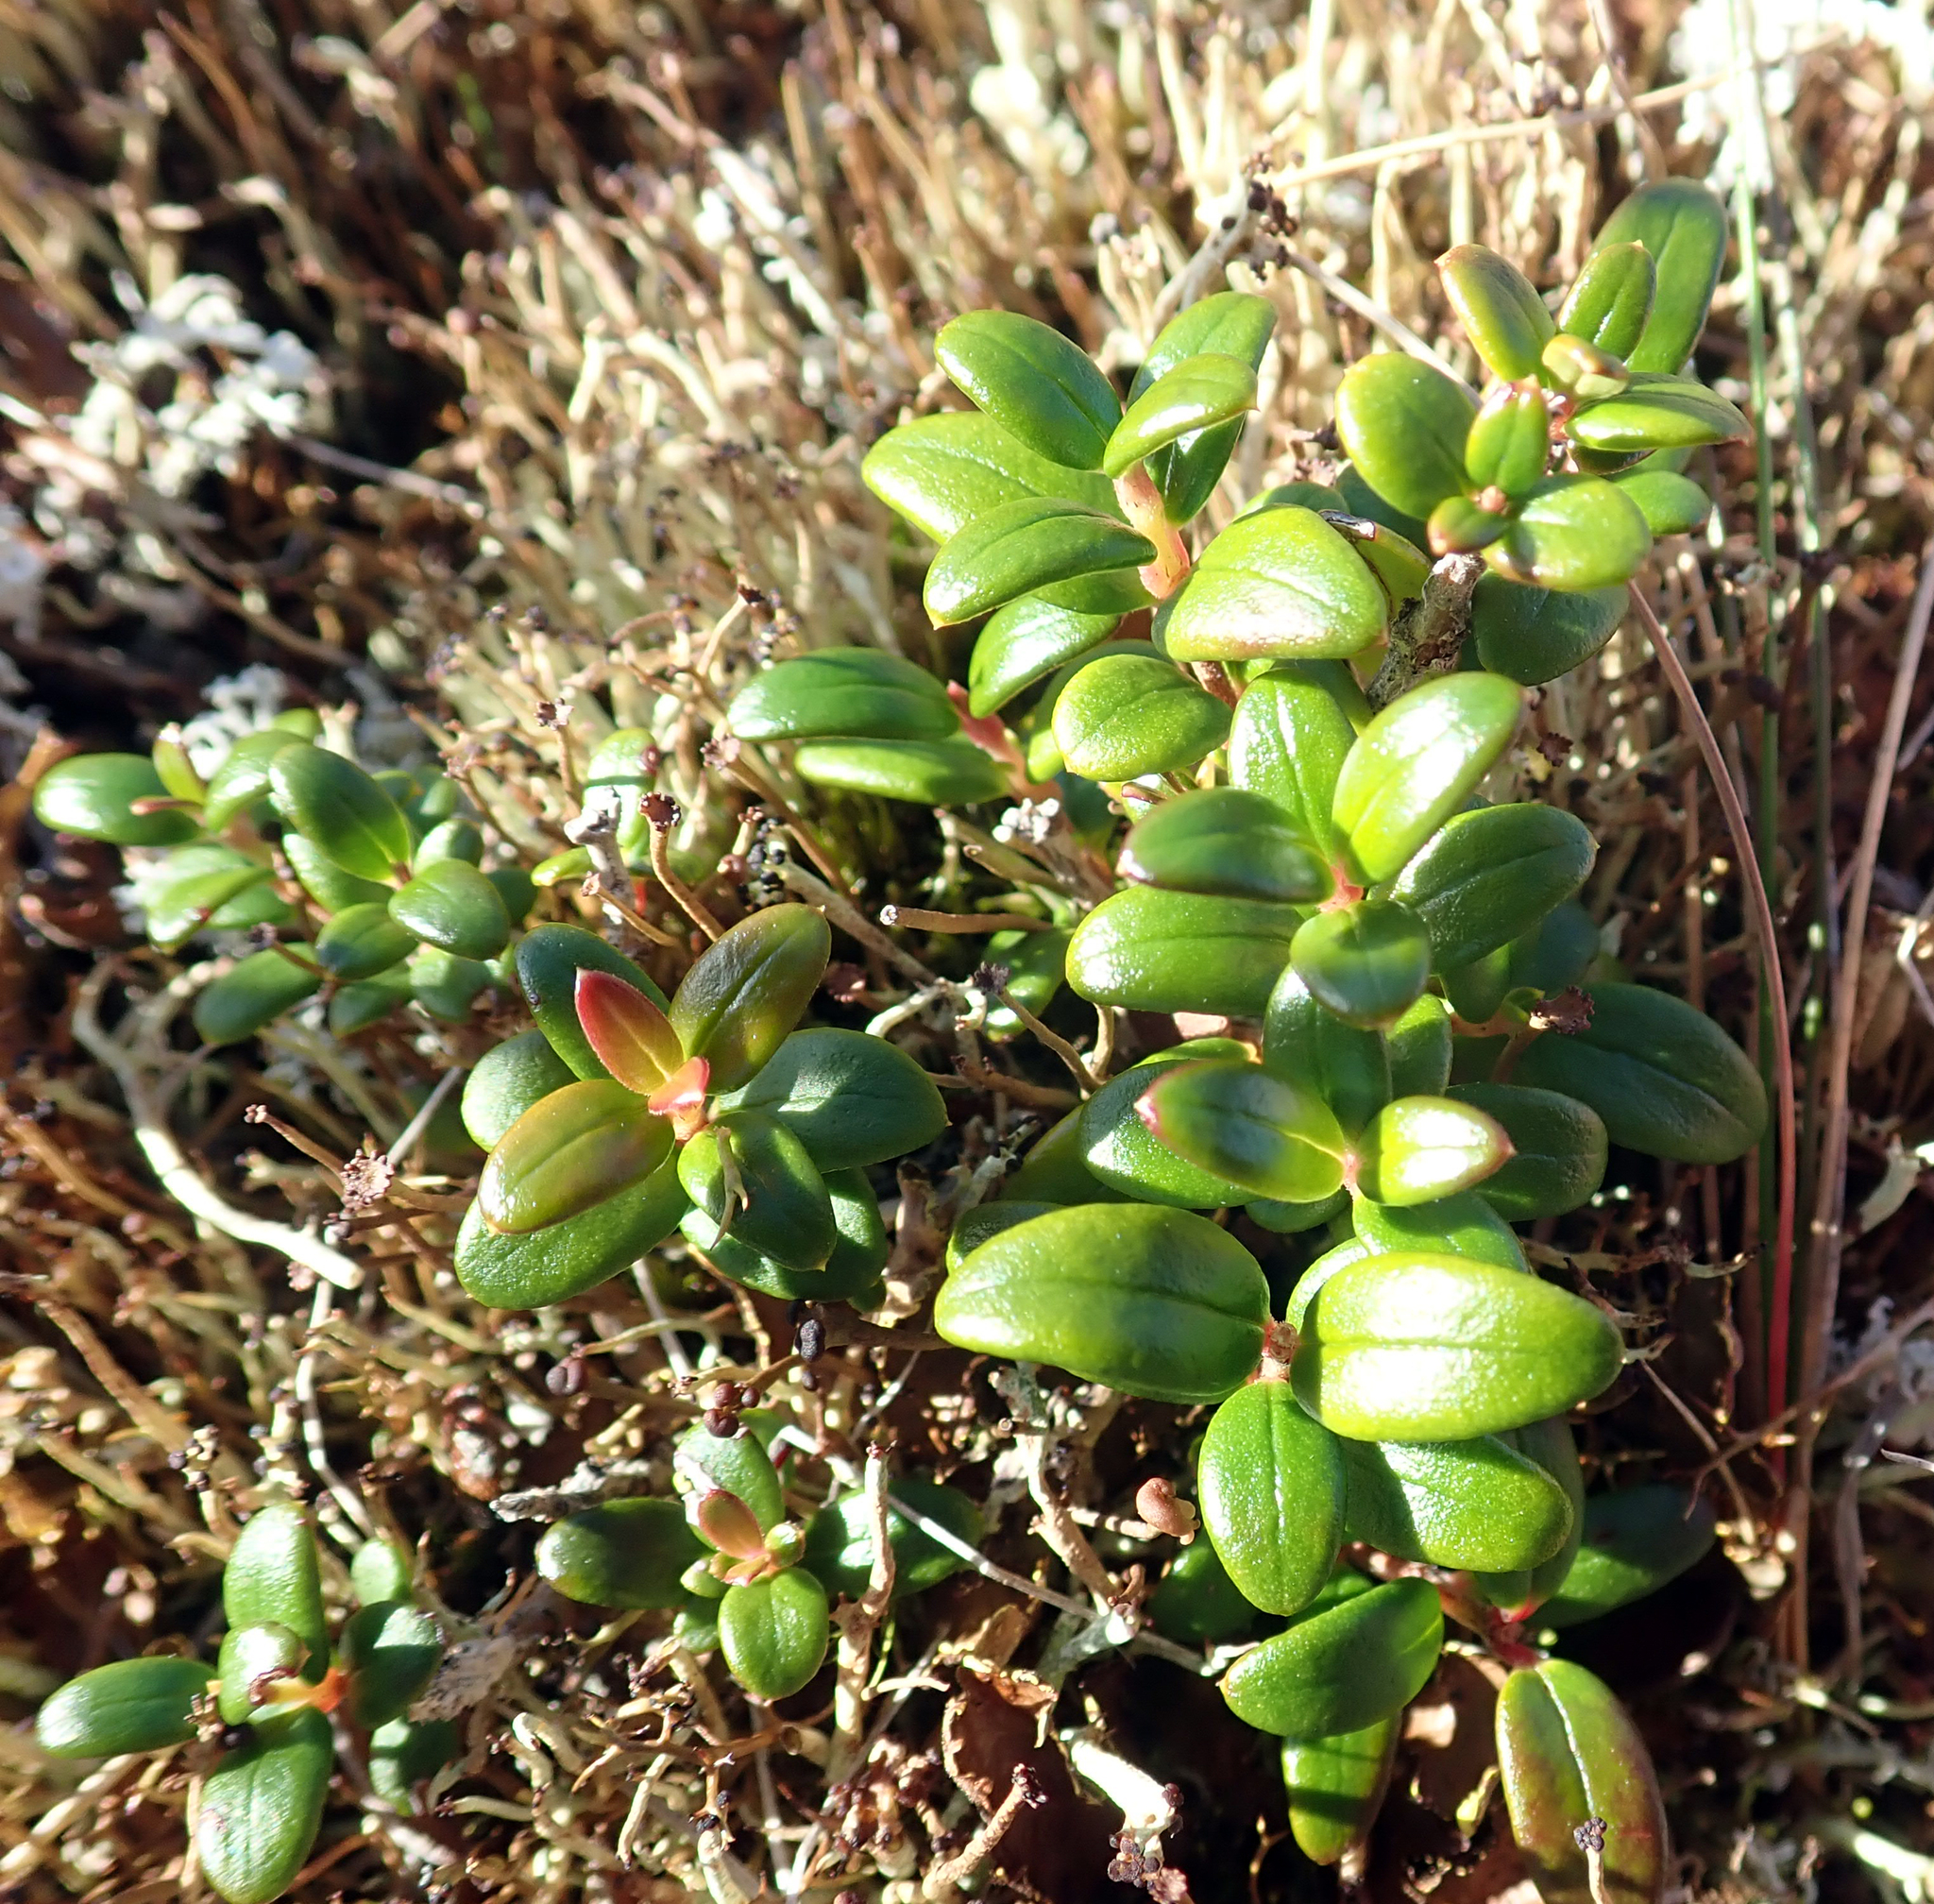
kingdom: Plantae
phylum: Tracheophyta
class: Magnoliopsida
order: Myrtales
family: Myrtaceae
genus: Ugni
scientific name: Ugni molinae
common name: Chilean-guava
